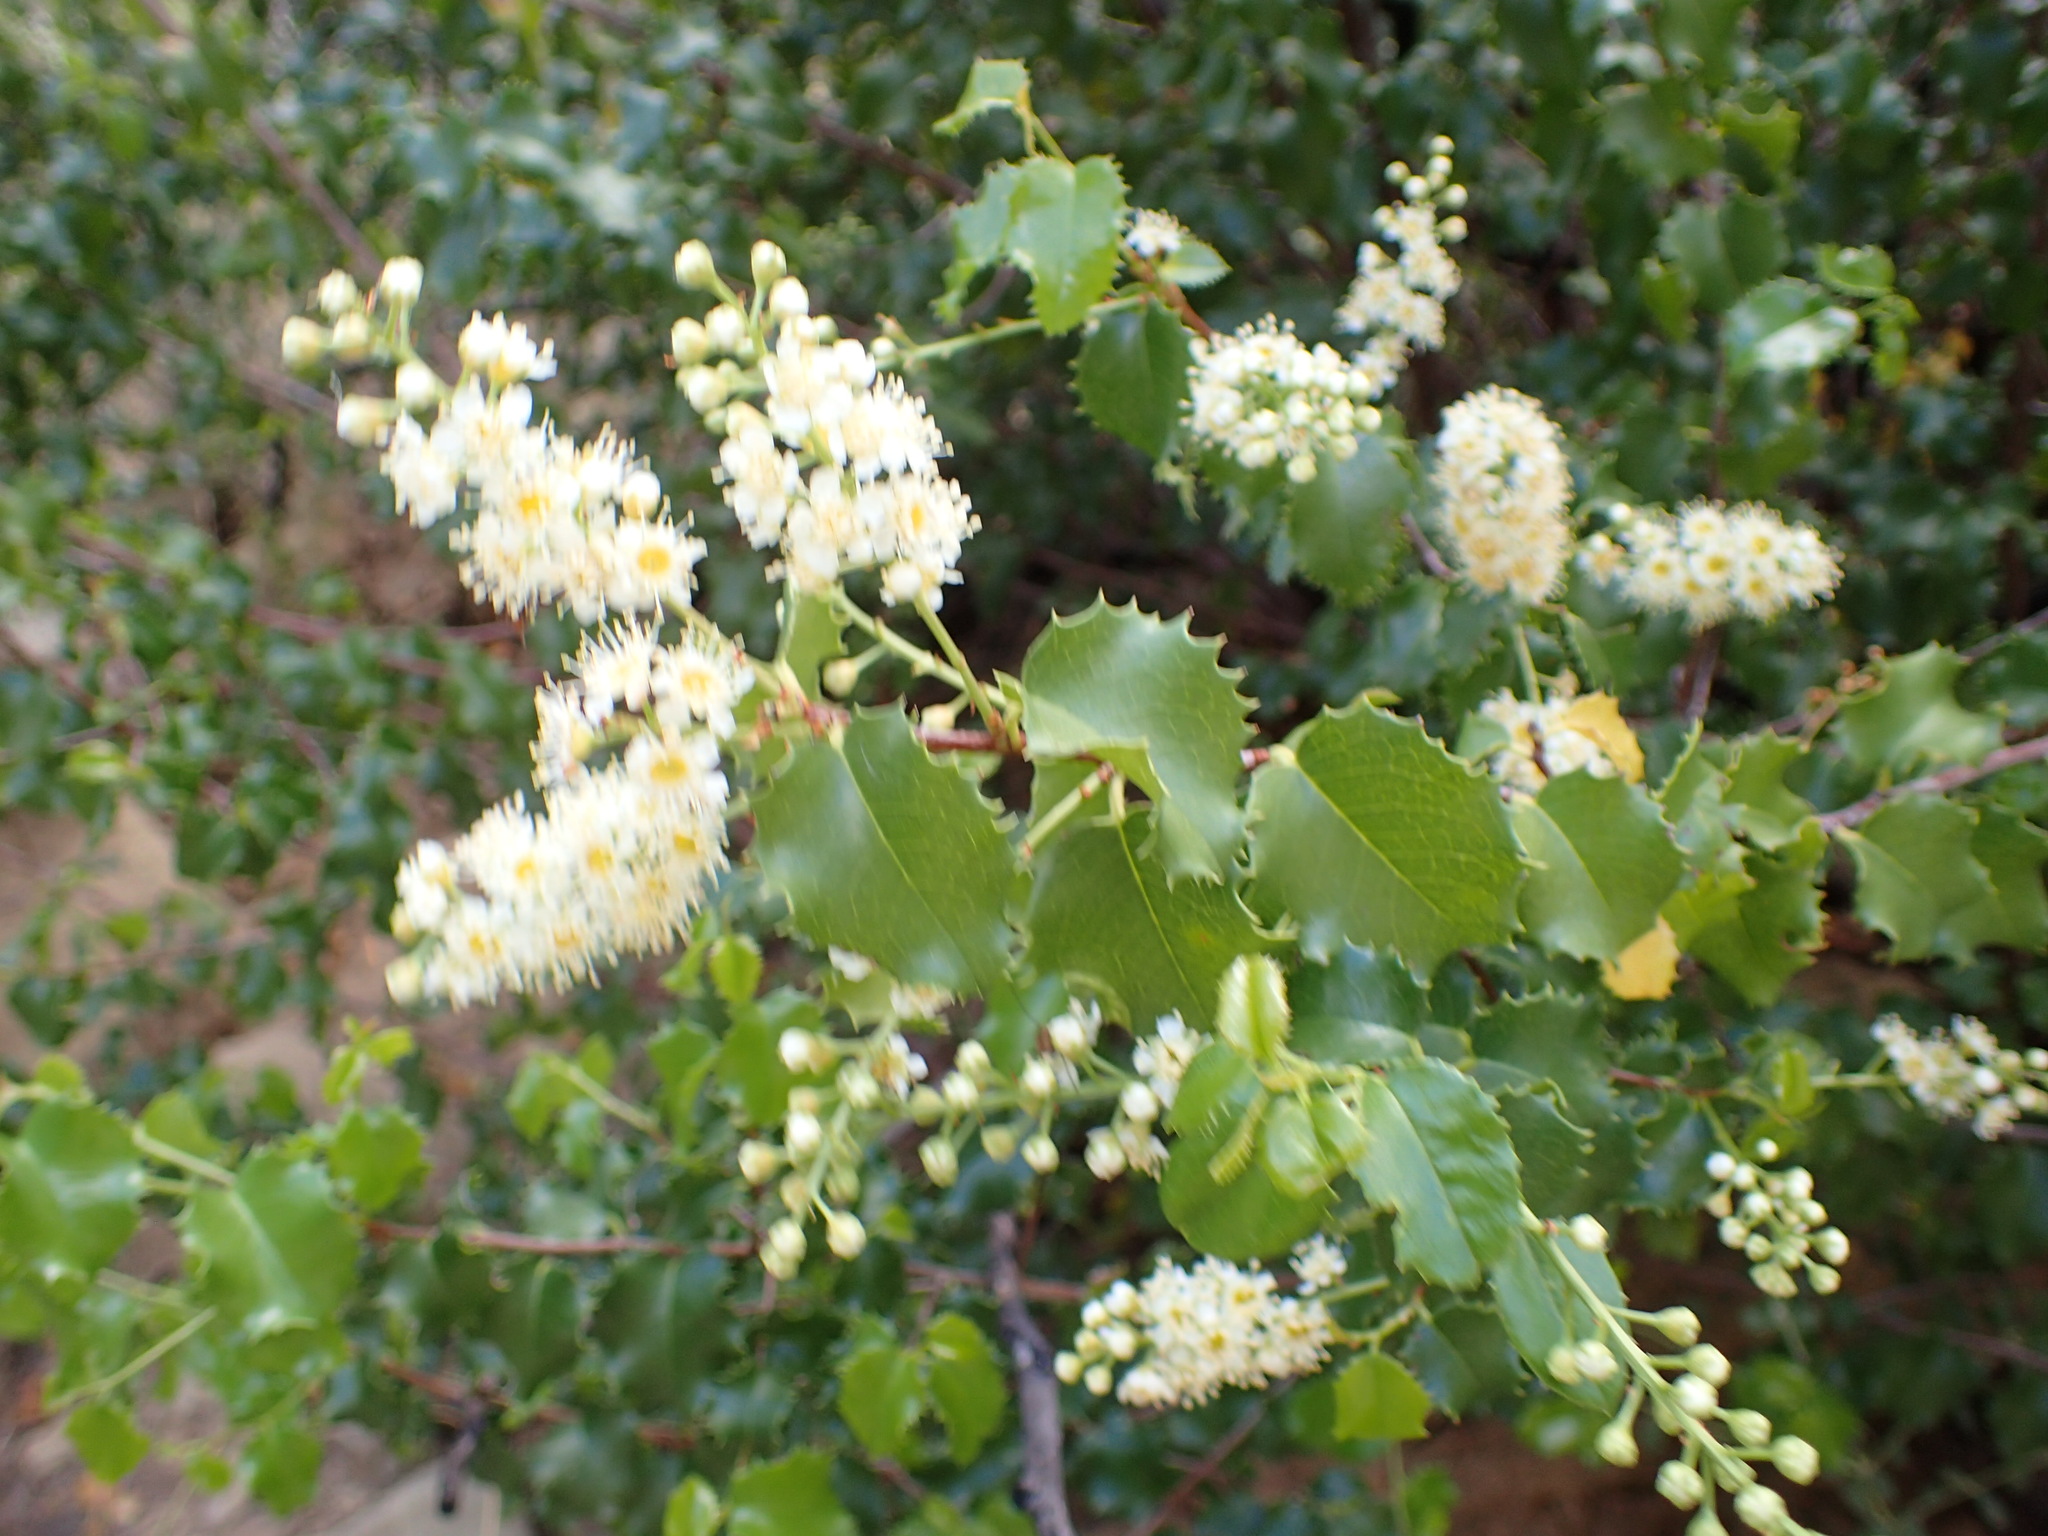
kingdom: Plantae
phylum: Tracheophyta
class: Magnoliopsida
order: Rosales
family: Rosaceae
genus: Prunus
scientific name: Prunus ilicifolia
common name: Hollyleaf cherry
